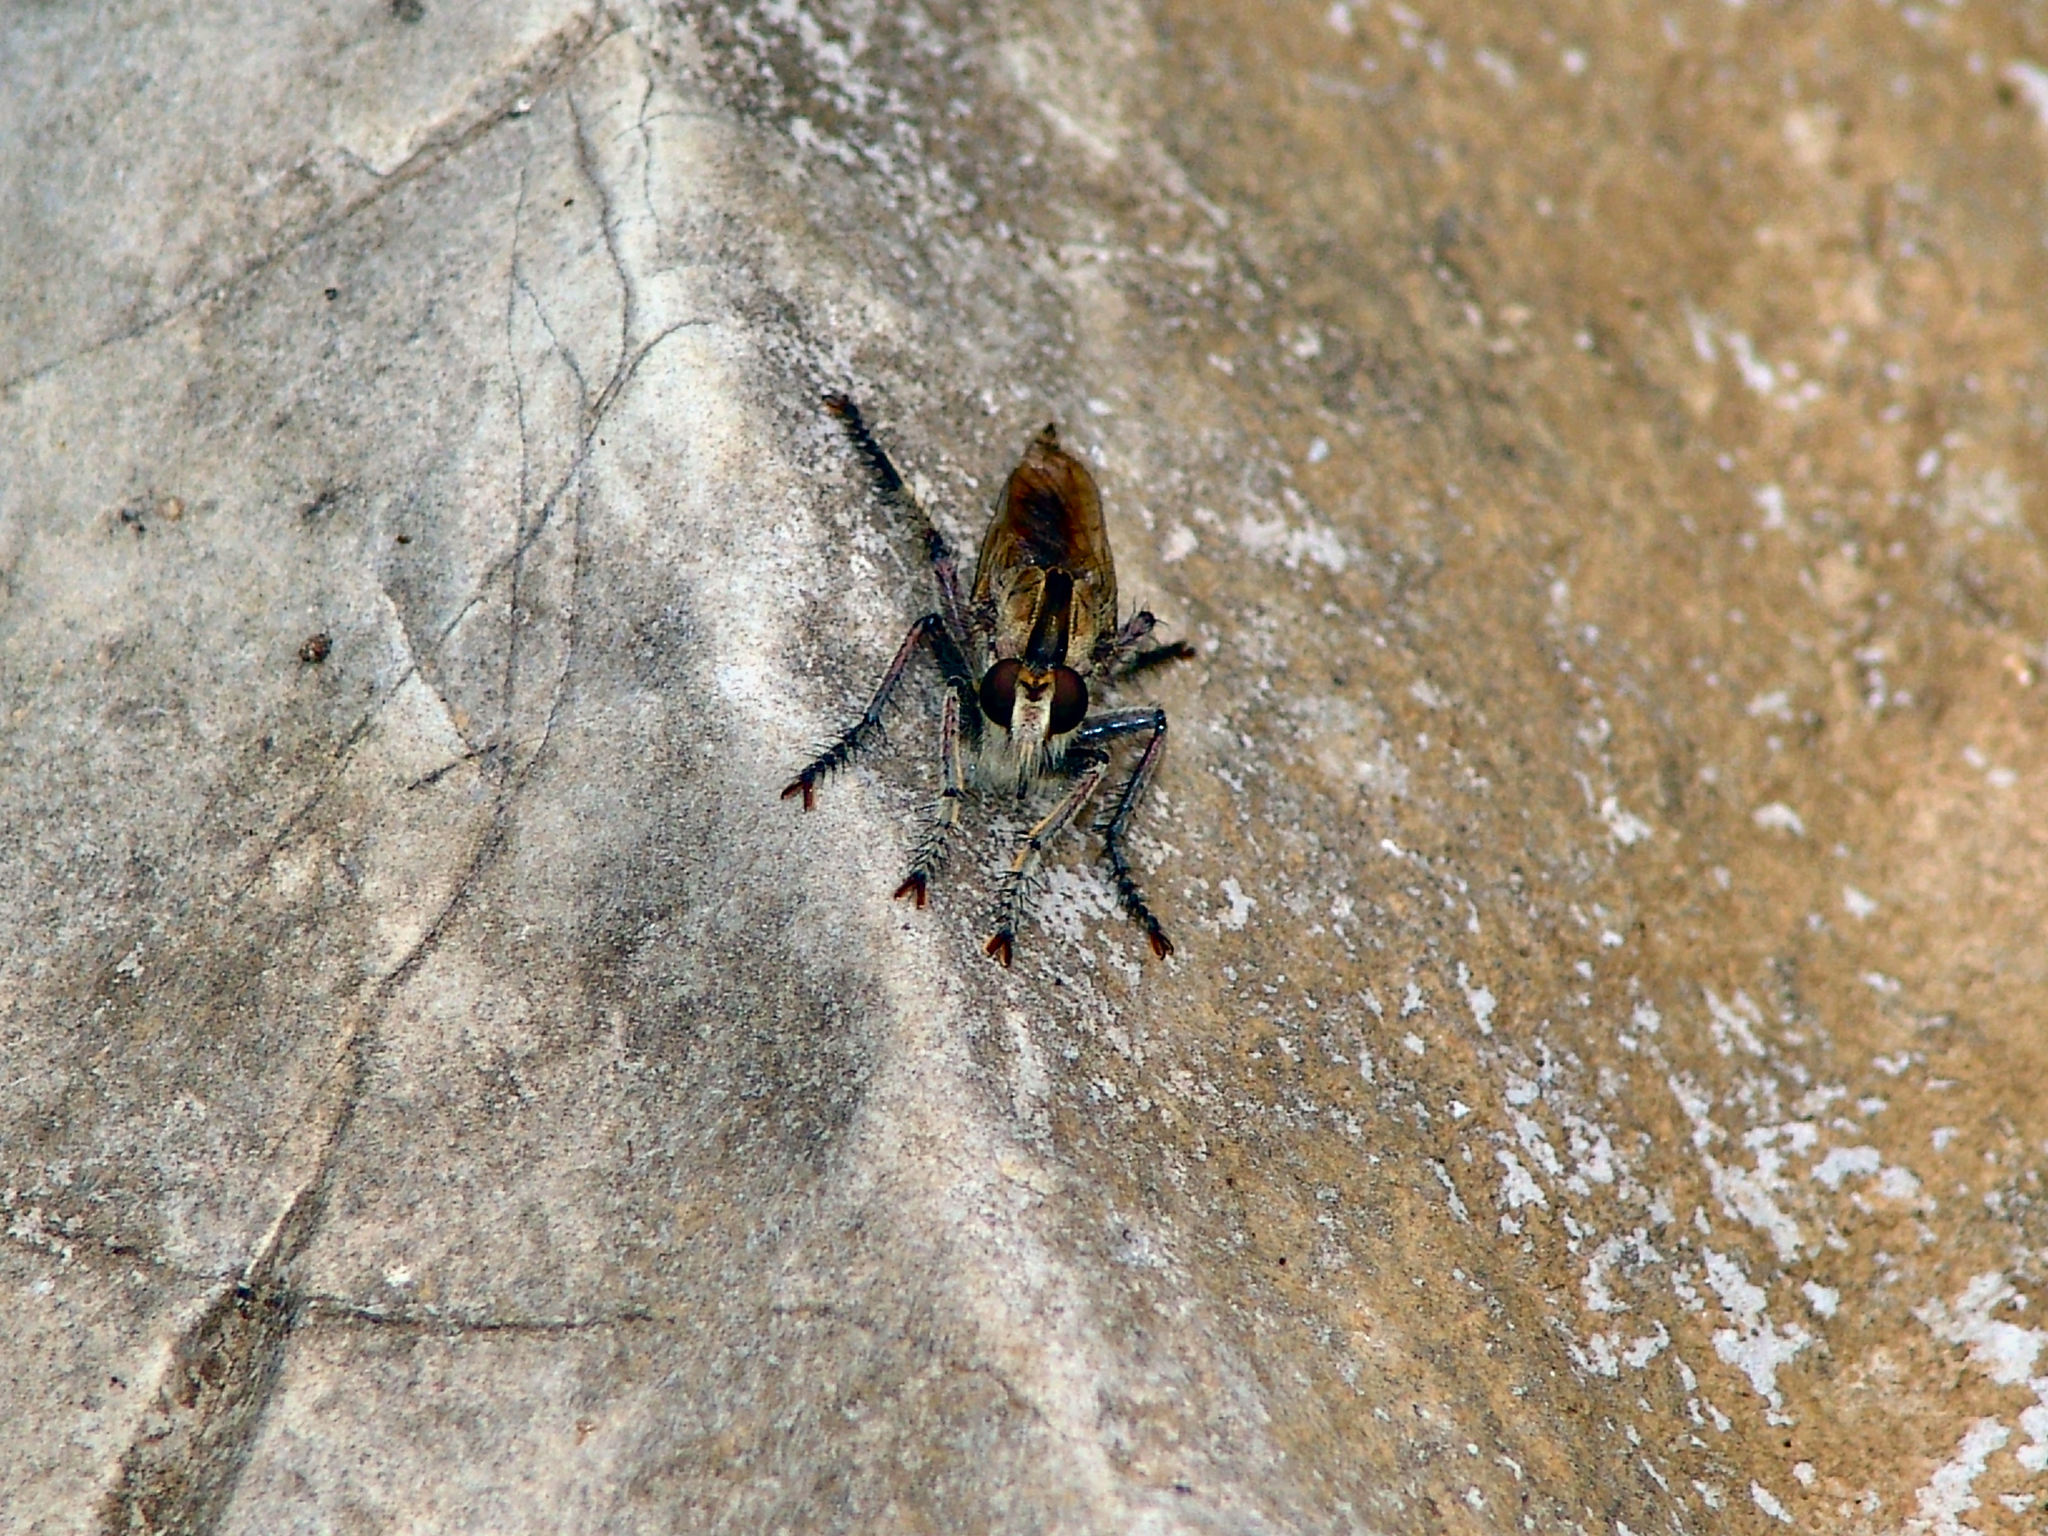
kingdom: Animalia
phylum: Arthropoda
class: Insecta
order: Diptera
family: Asilidae
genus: Triorla
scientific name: Triorla interrupta
